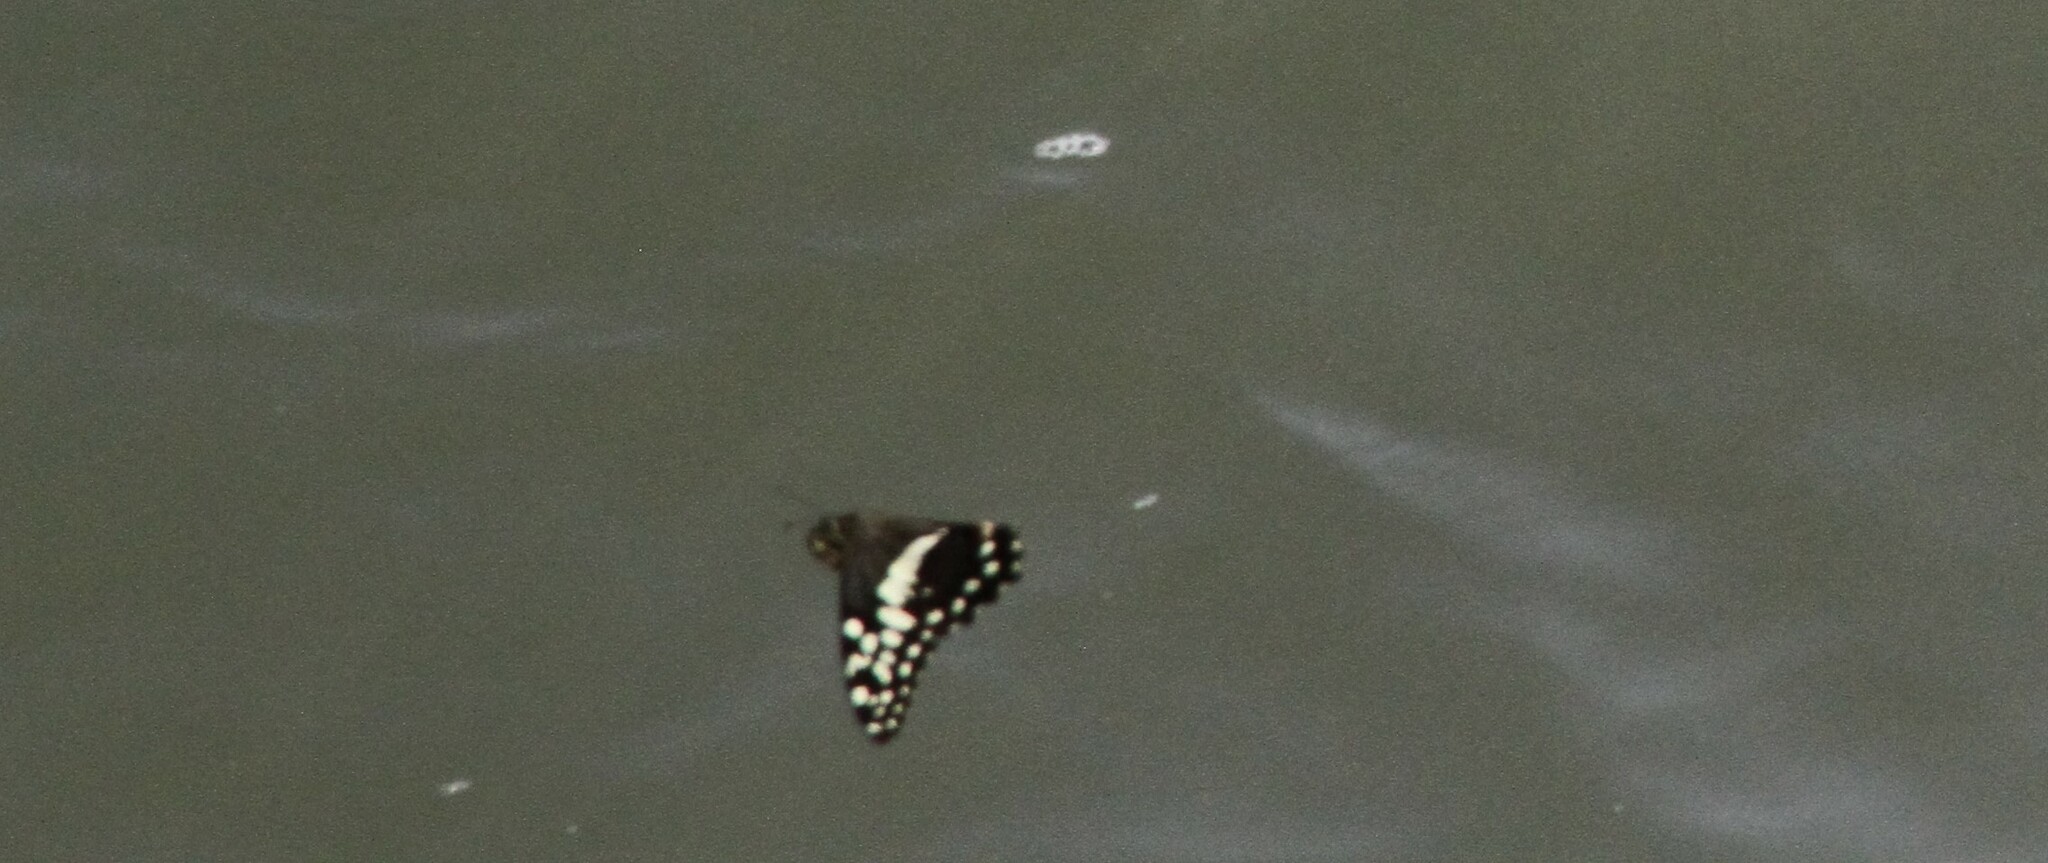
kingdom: Animalia
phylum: Arthropoda
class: Insecta
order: Lepidoptera
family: Papilionidae
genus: Papilio
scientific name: Papilio demodocus
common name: Christmas butterfly
